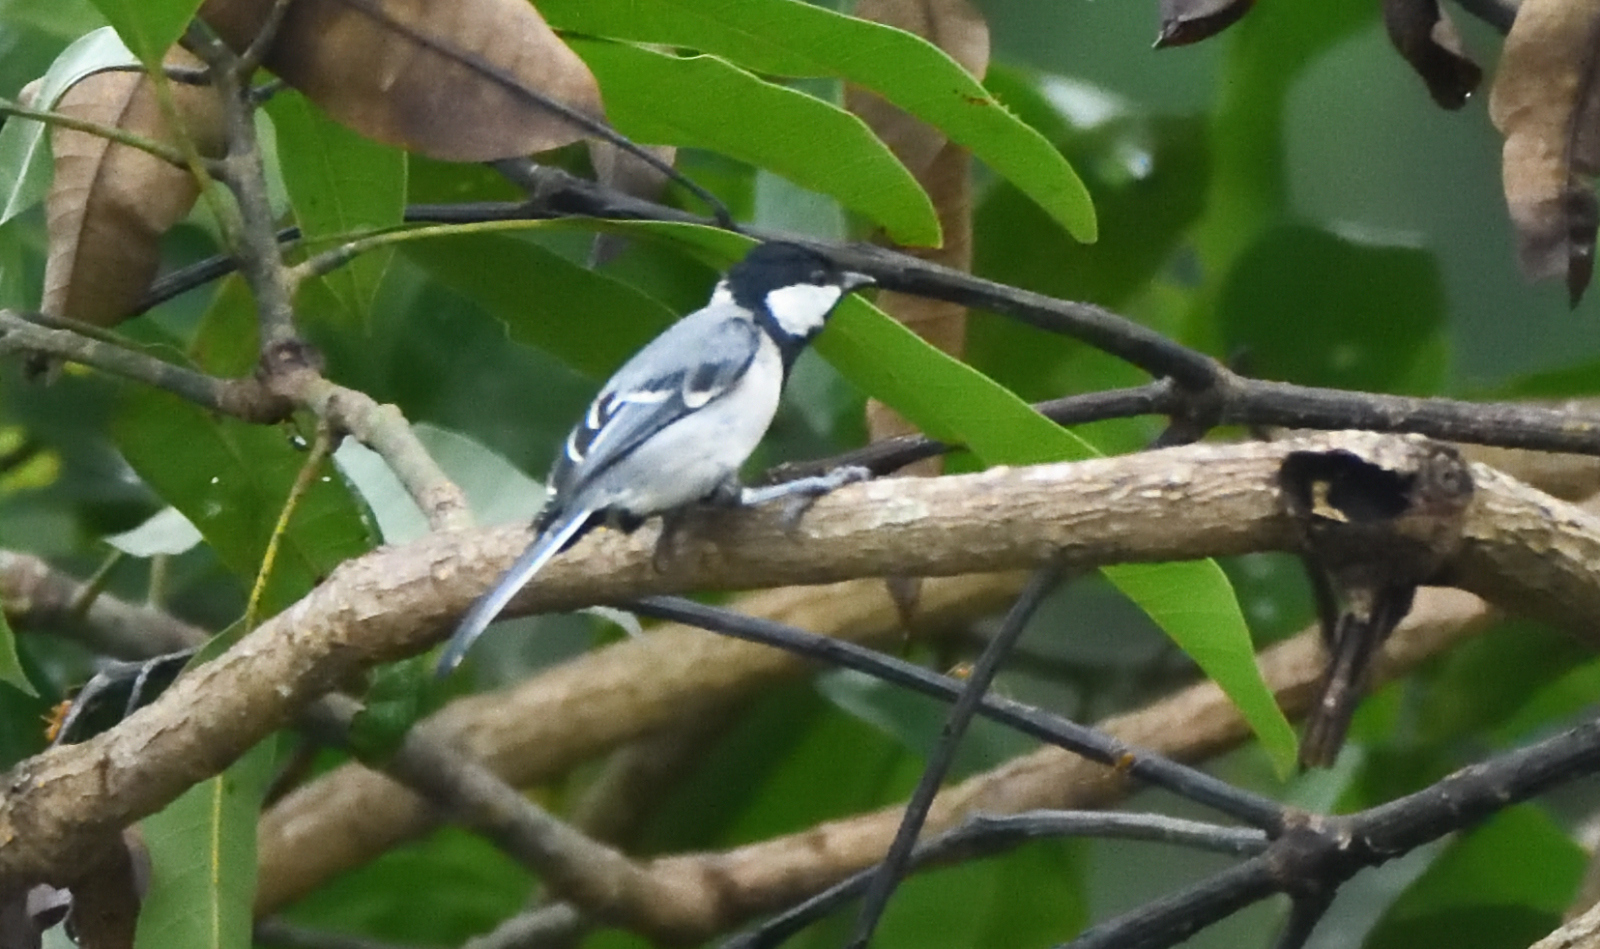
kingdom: Animalia
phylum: Chordata
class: Aves
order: Passeriformes
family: Paridae
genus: Parus
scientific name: Parus cinereus
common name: Cinereous tit
